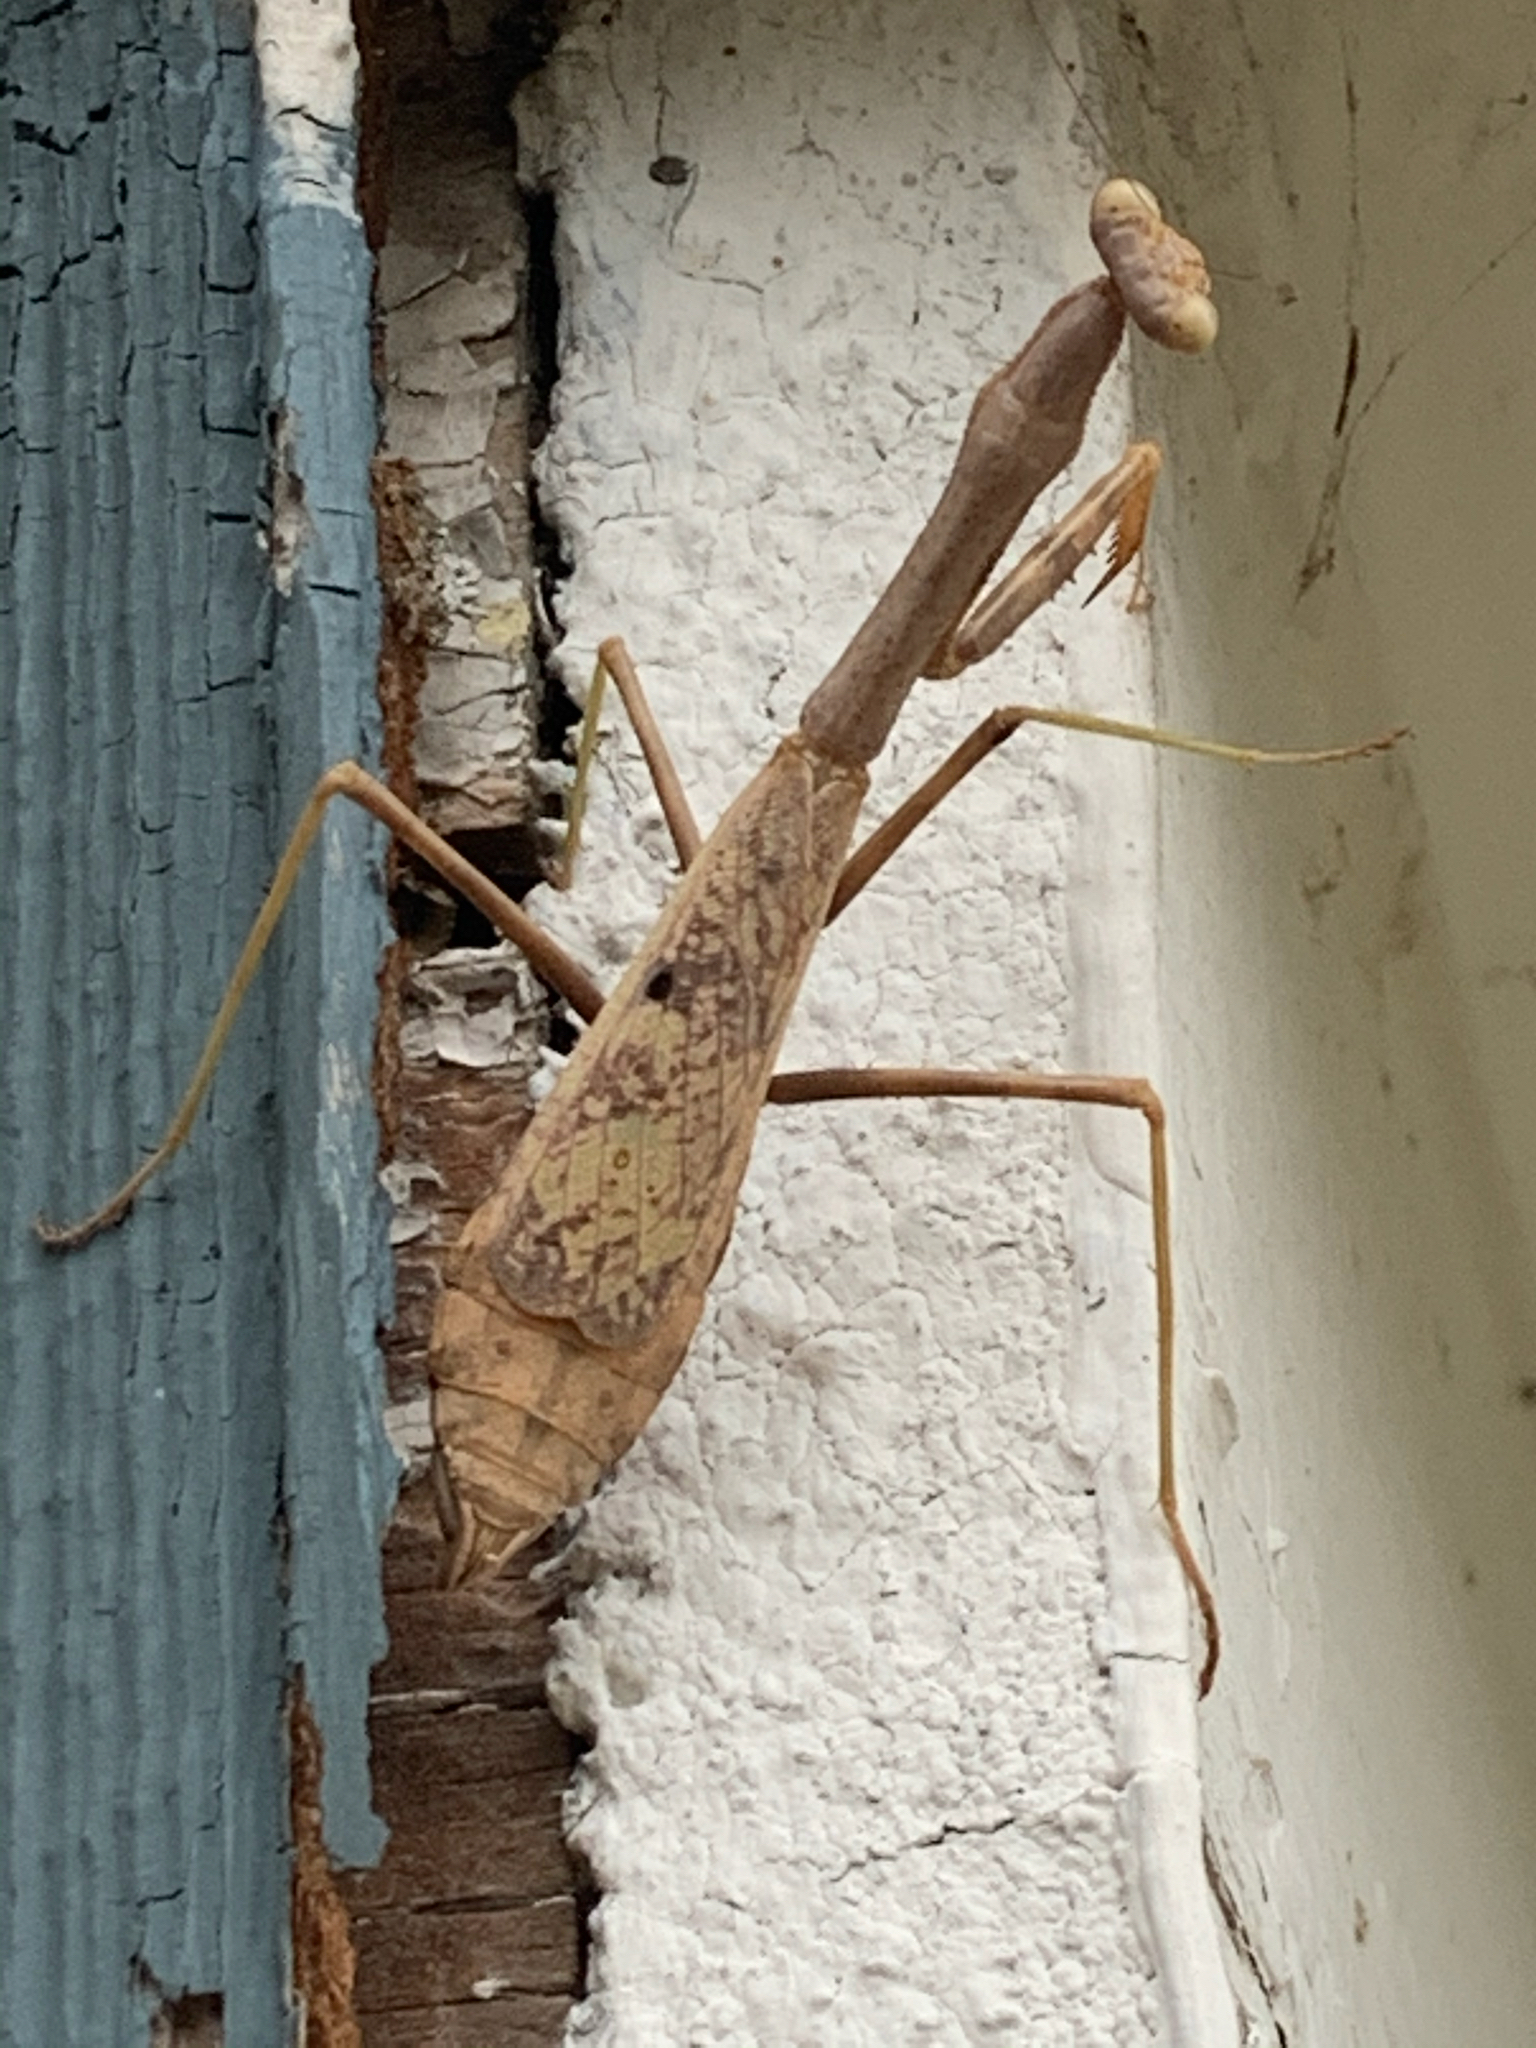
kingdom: Animalia
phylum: Arthropoda
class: Insecta
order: Mantodea
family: Mantidae
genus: Stagmomantis
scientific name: Stagmomantis carolina
